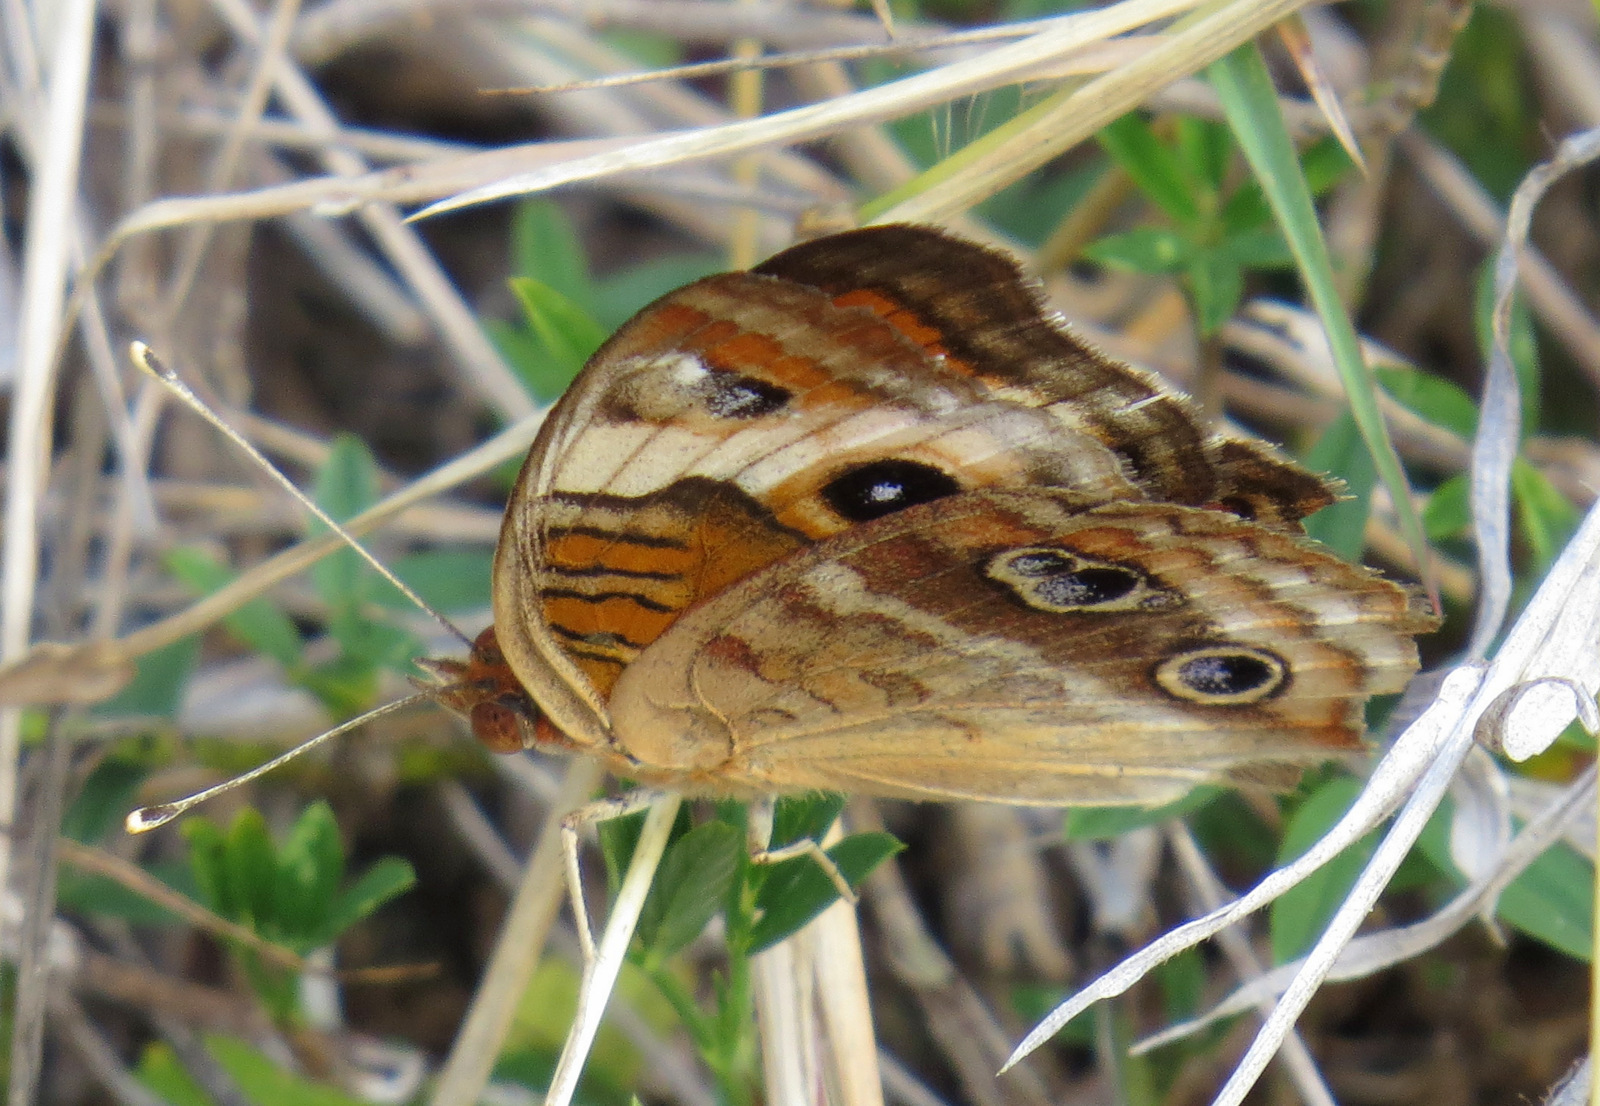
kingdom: Animalia
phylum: Arthropoda
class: Insecta
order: Lepidoptera
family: Nymphalidae
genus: Junonia
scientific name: Junonia lavinia
